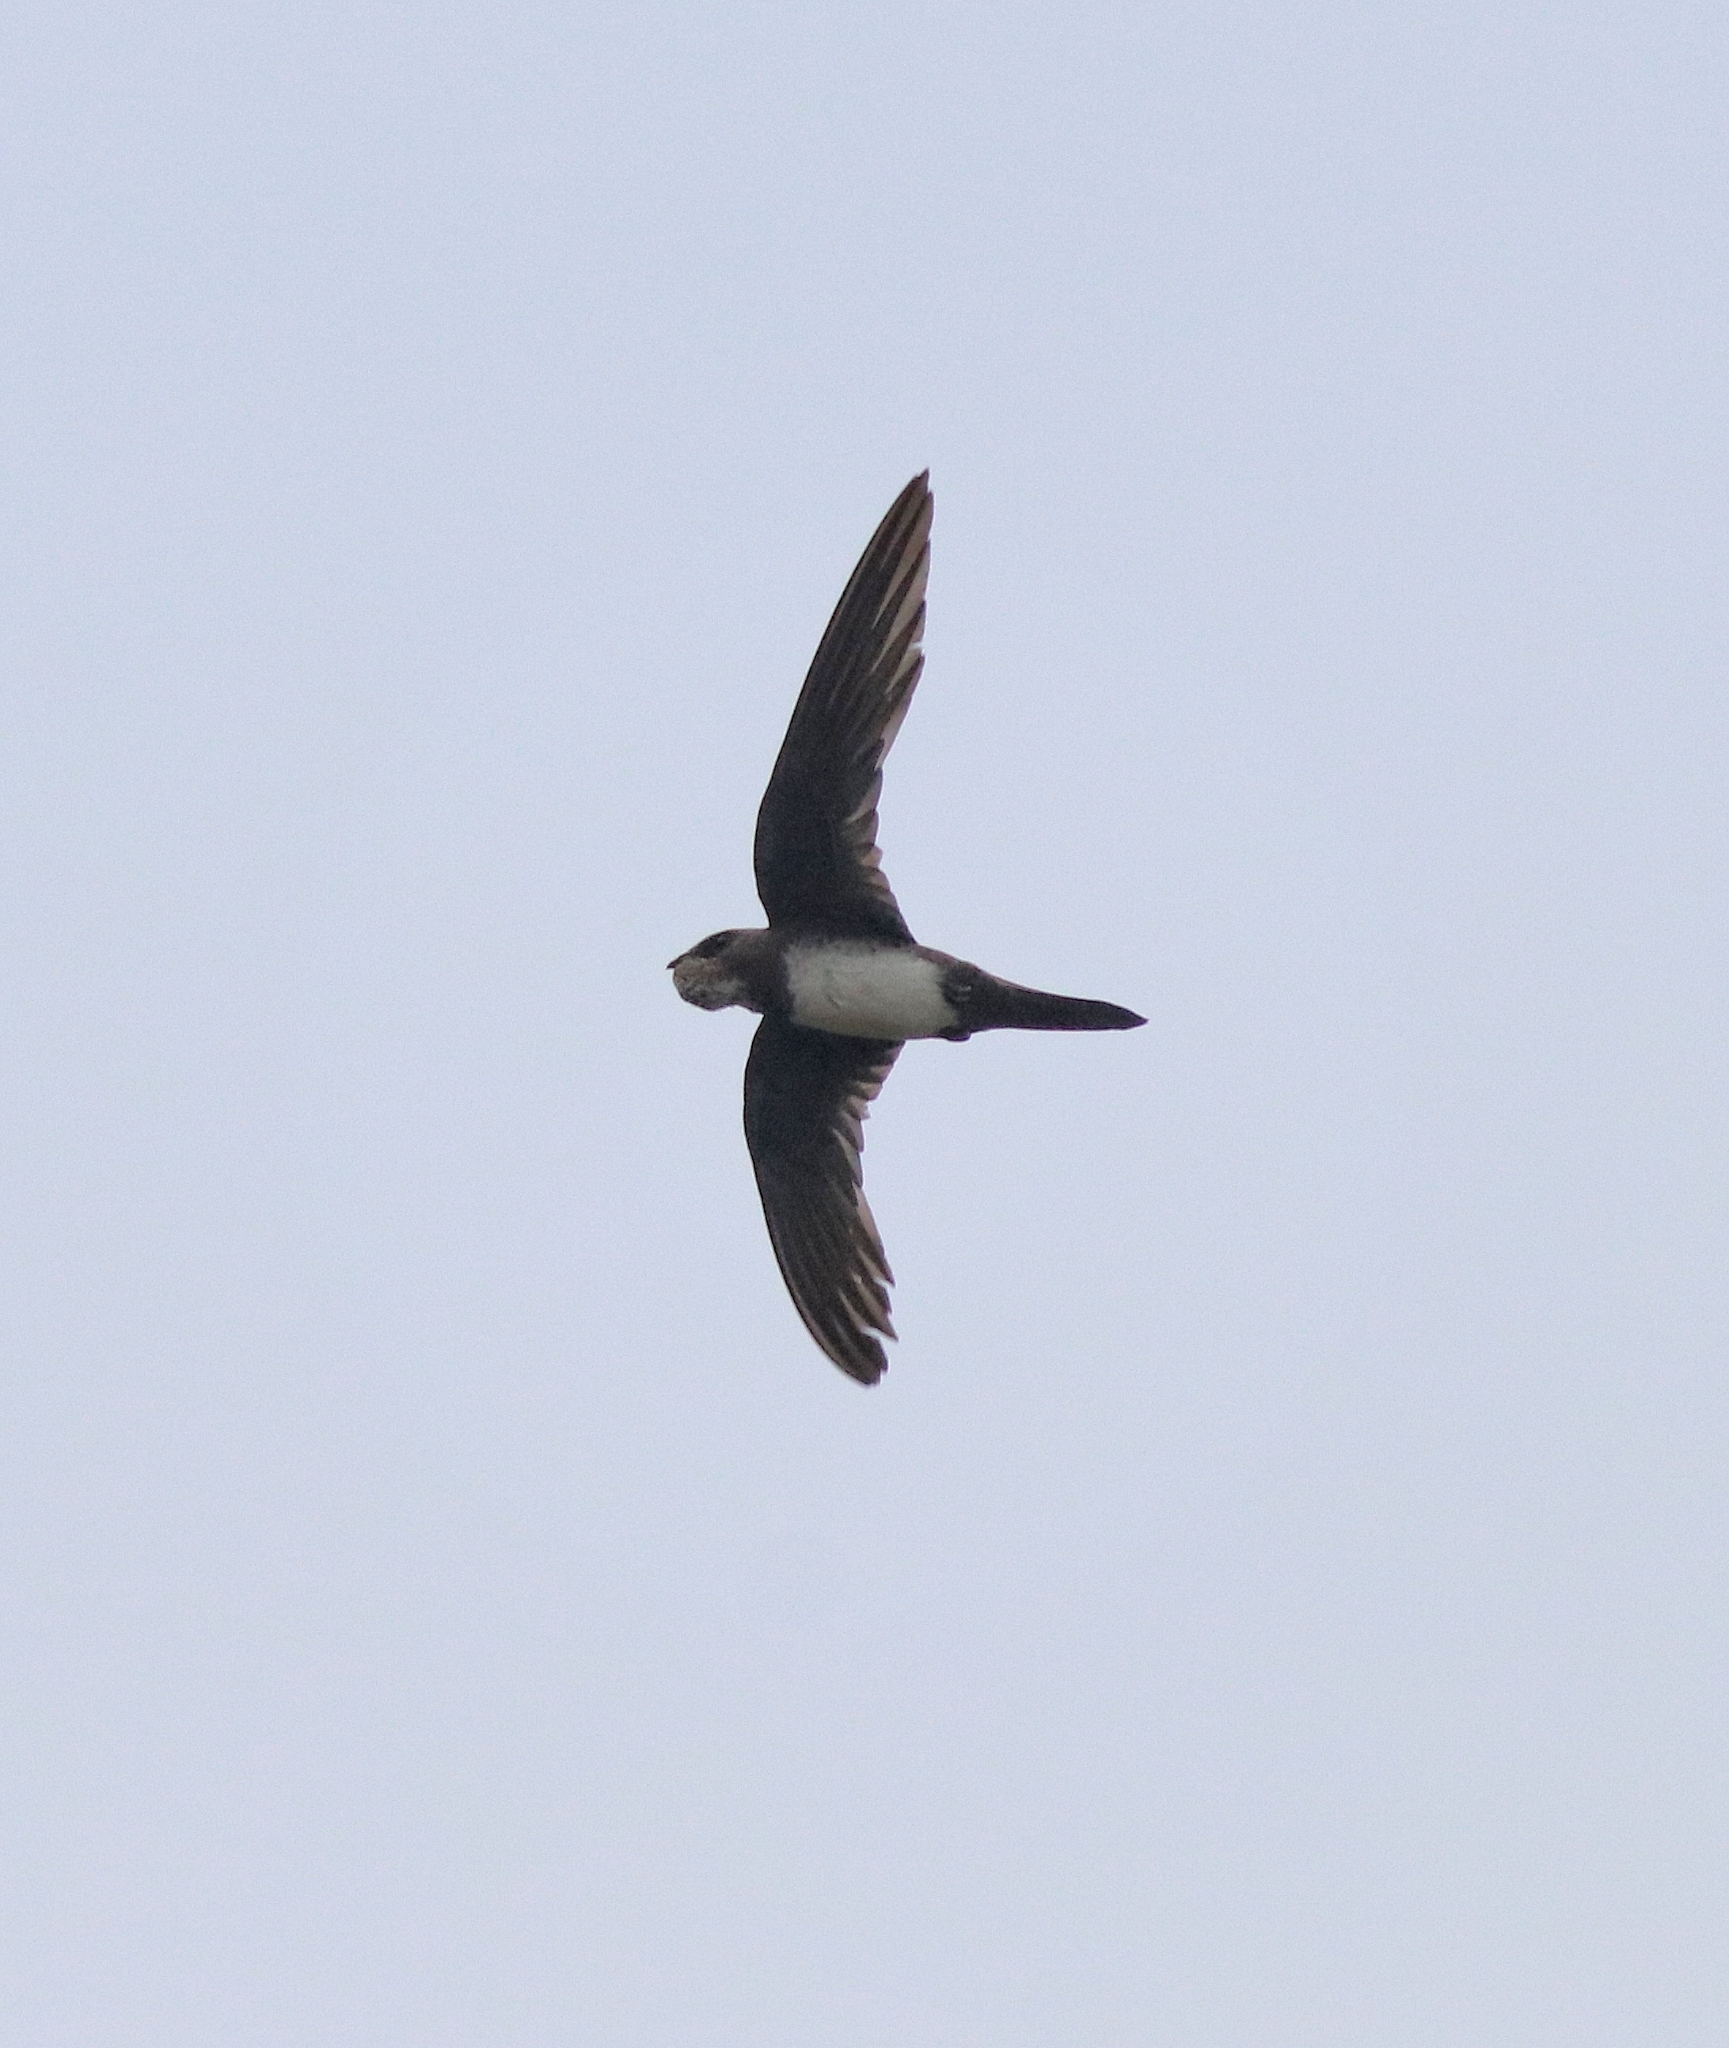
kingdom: Animalia
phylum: Chordata
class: Aves
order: Apodiformes
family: Apodidae
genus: Tachymarptis
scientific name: Tachymarptis melba
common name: Alpine swift
